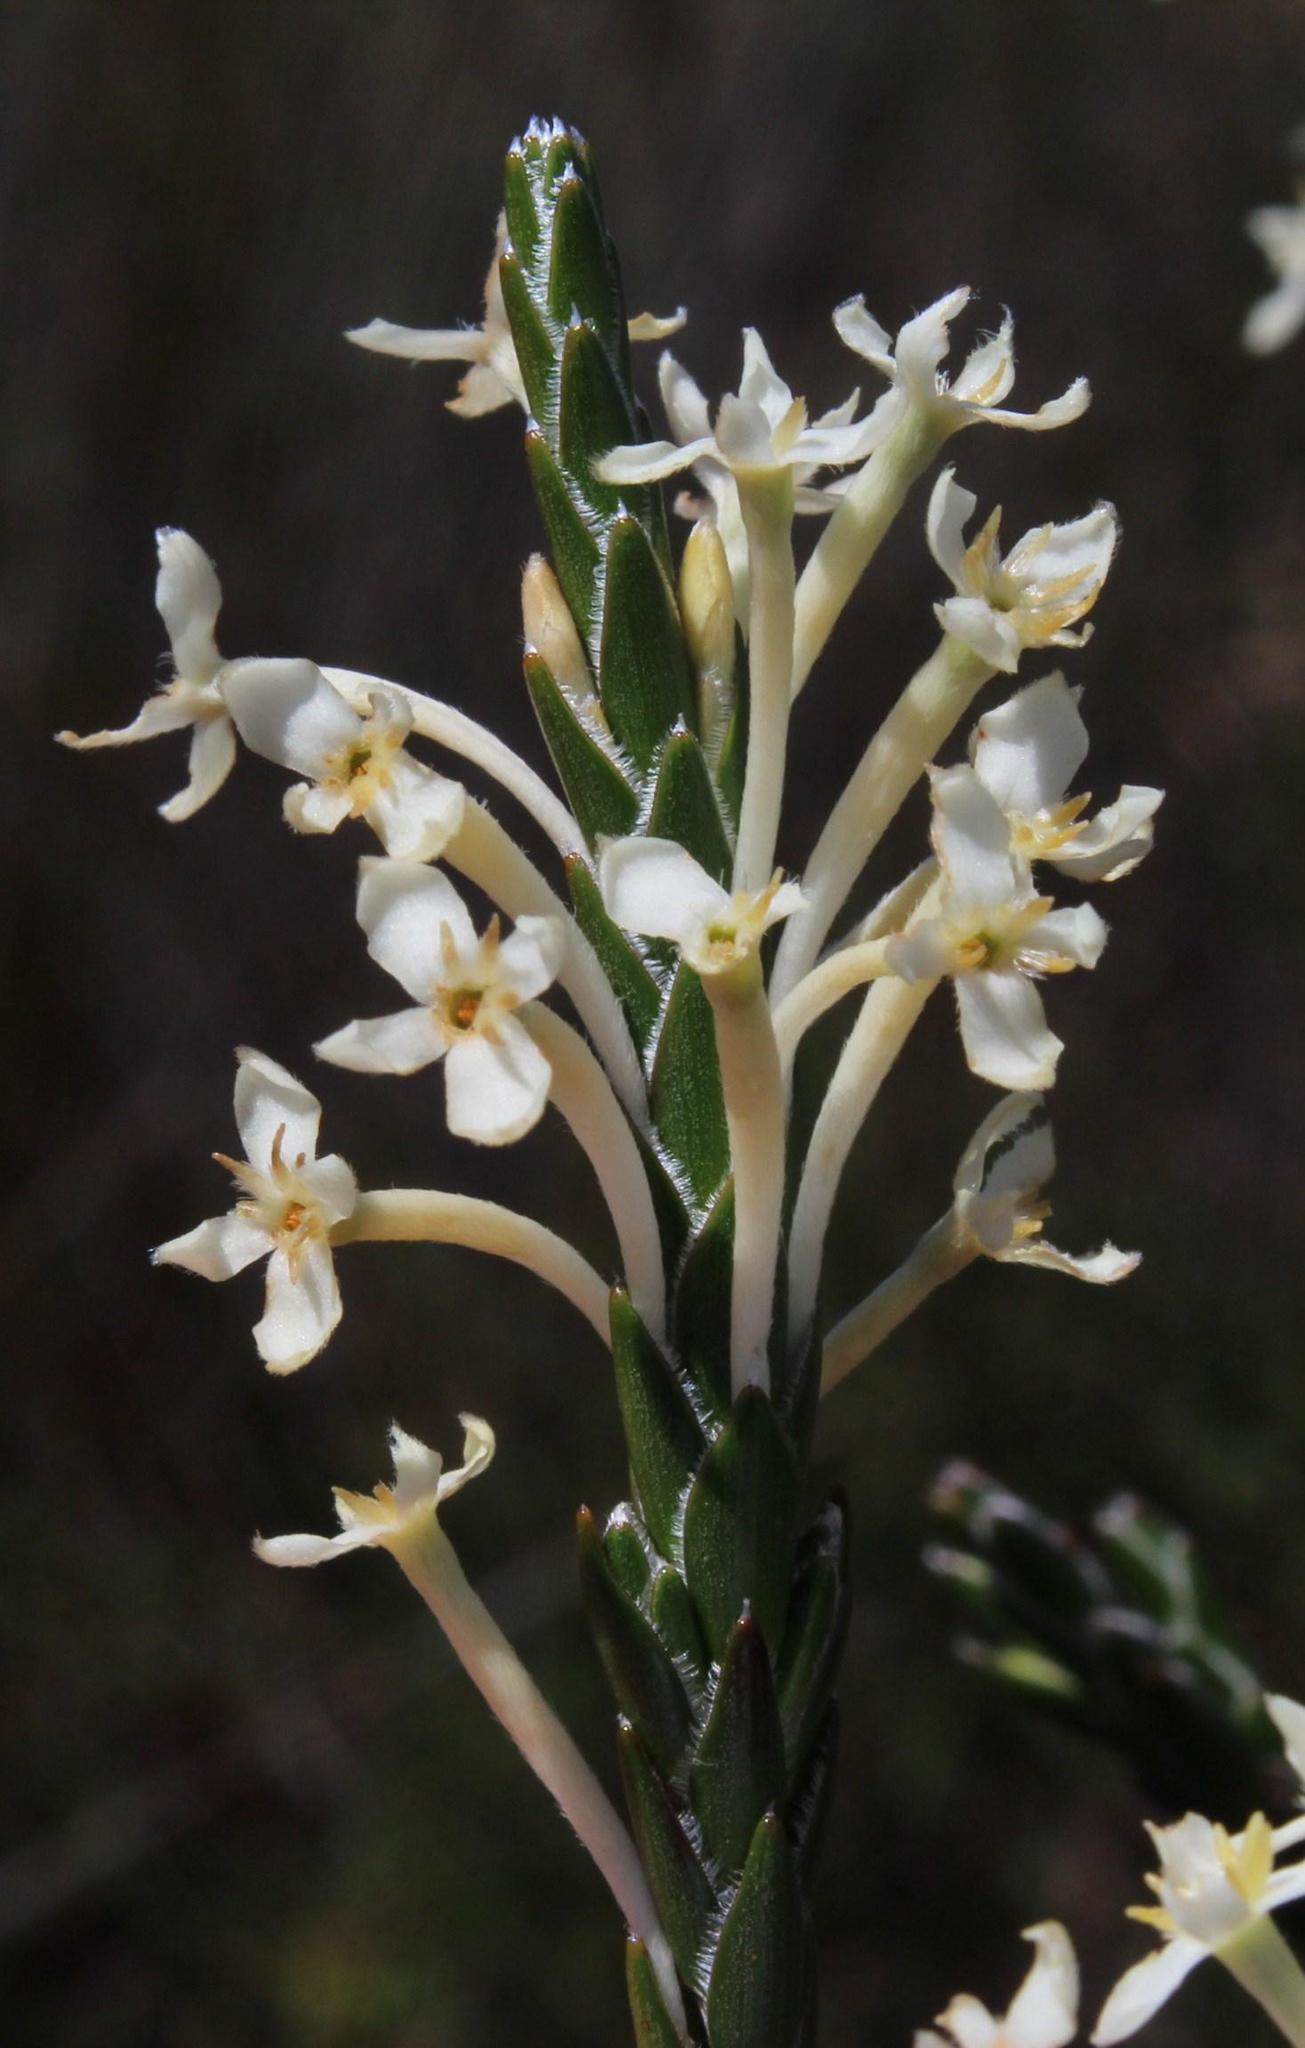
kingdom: Plantae
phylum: Tracheophyta
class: Magnoliopsida
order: Malvales
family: Thymelaeaceae
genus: Struthiola
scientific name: Struthiola ciliata
